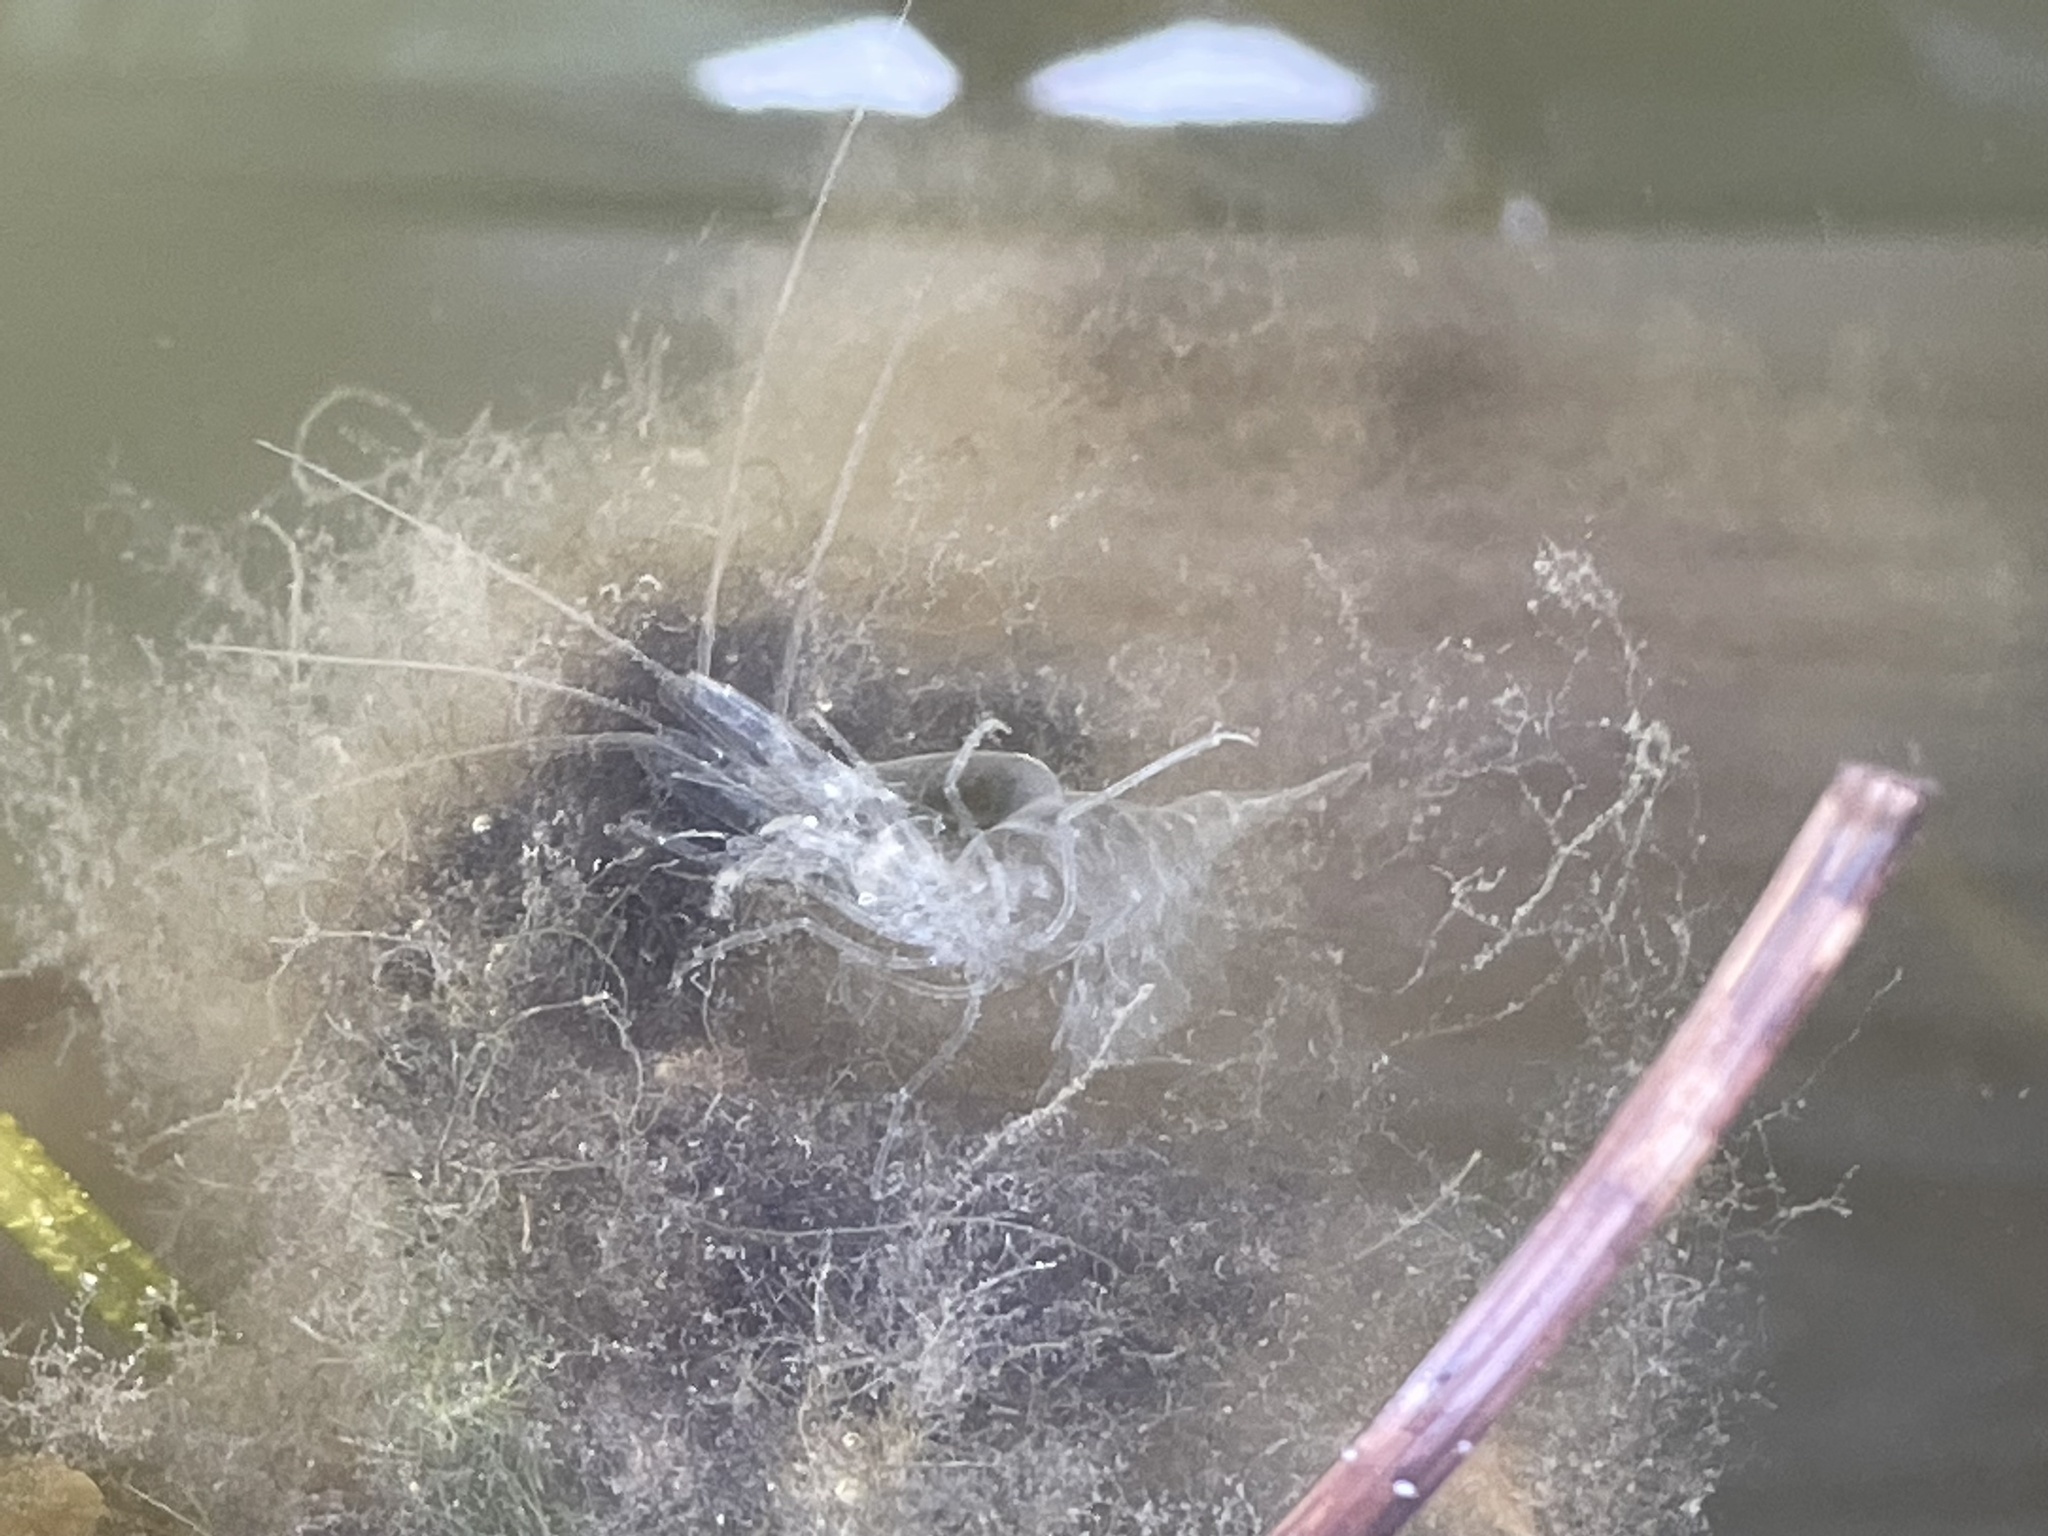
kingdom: Animalia
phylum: Arthropoda
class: Malacostraca
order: Decapoda
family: Palaemonidae
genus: Palaemon
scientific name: Palaemon paludosus
